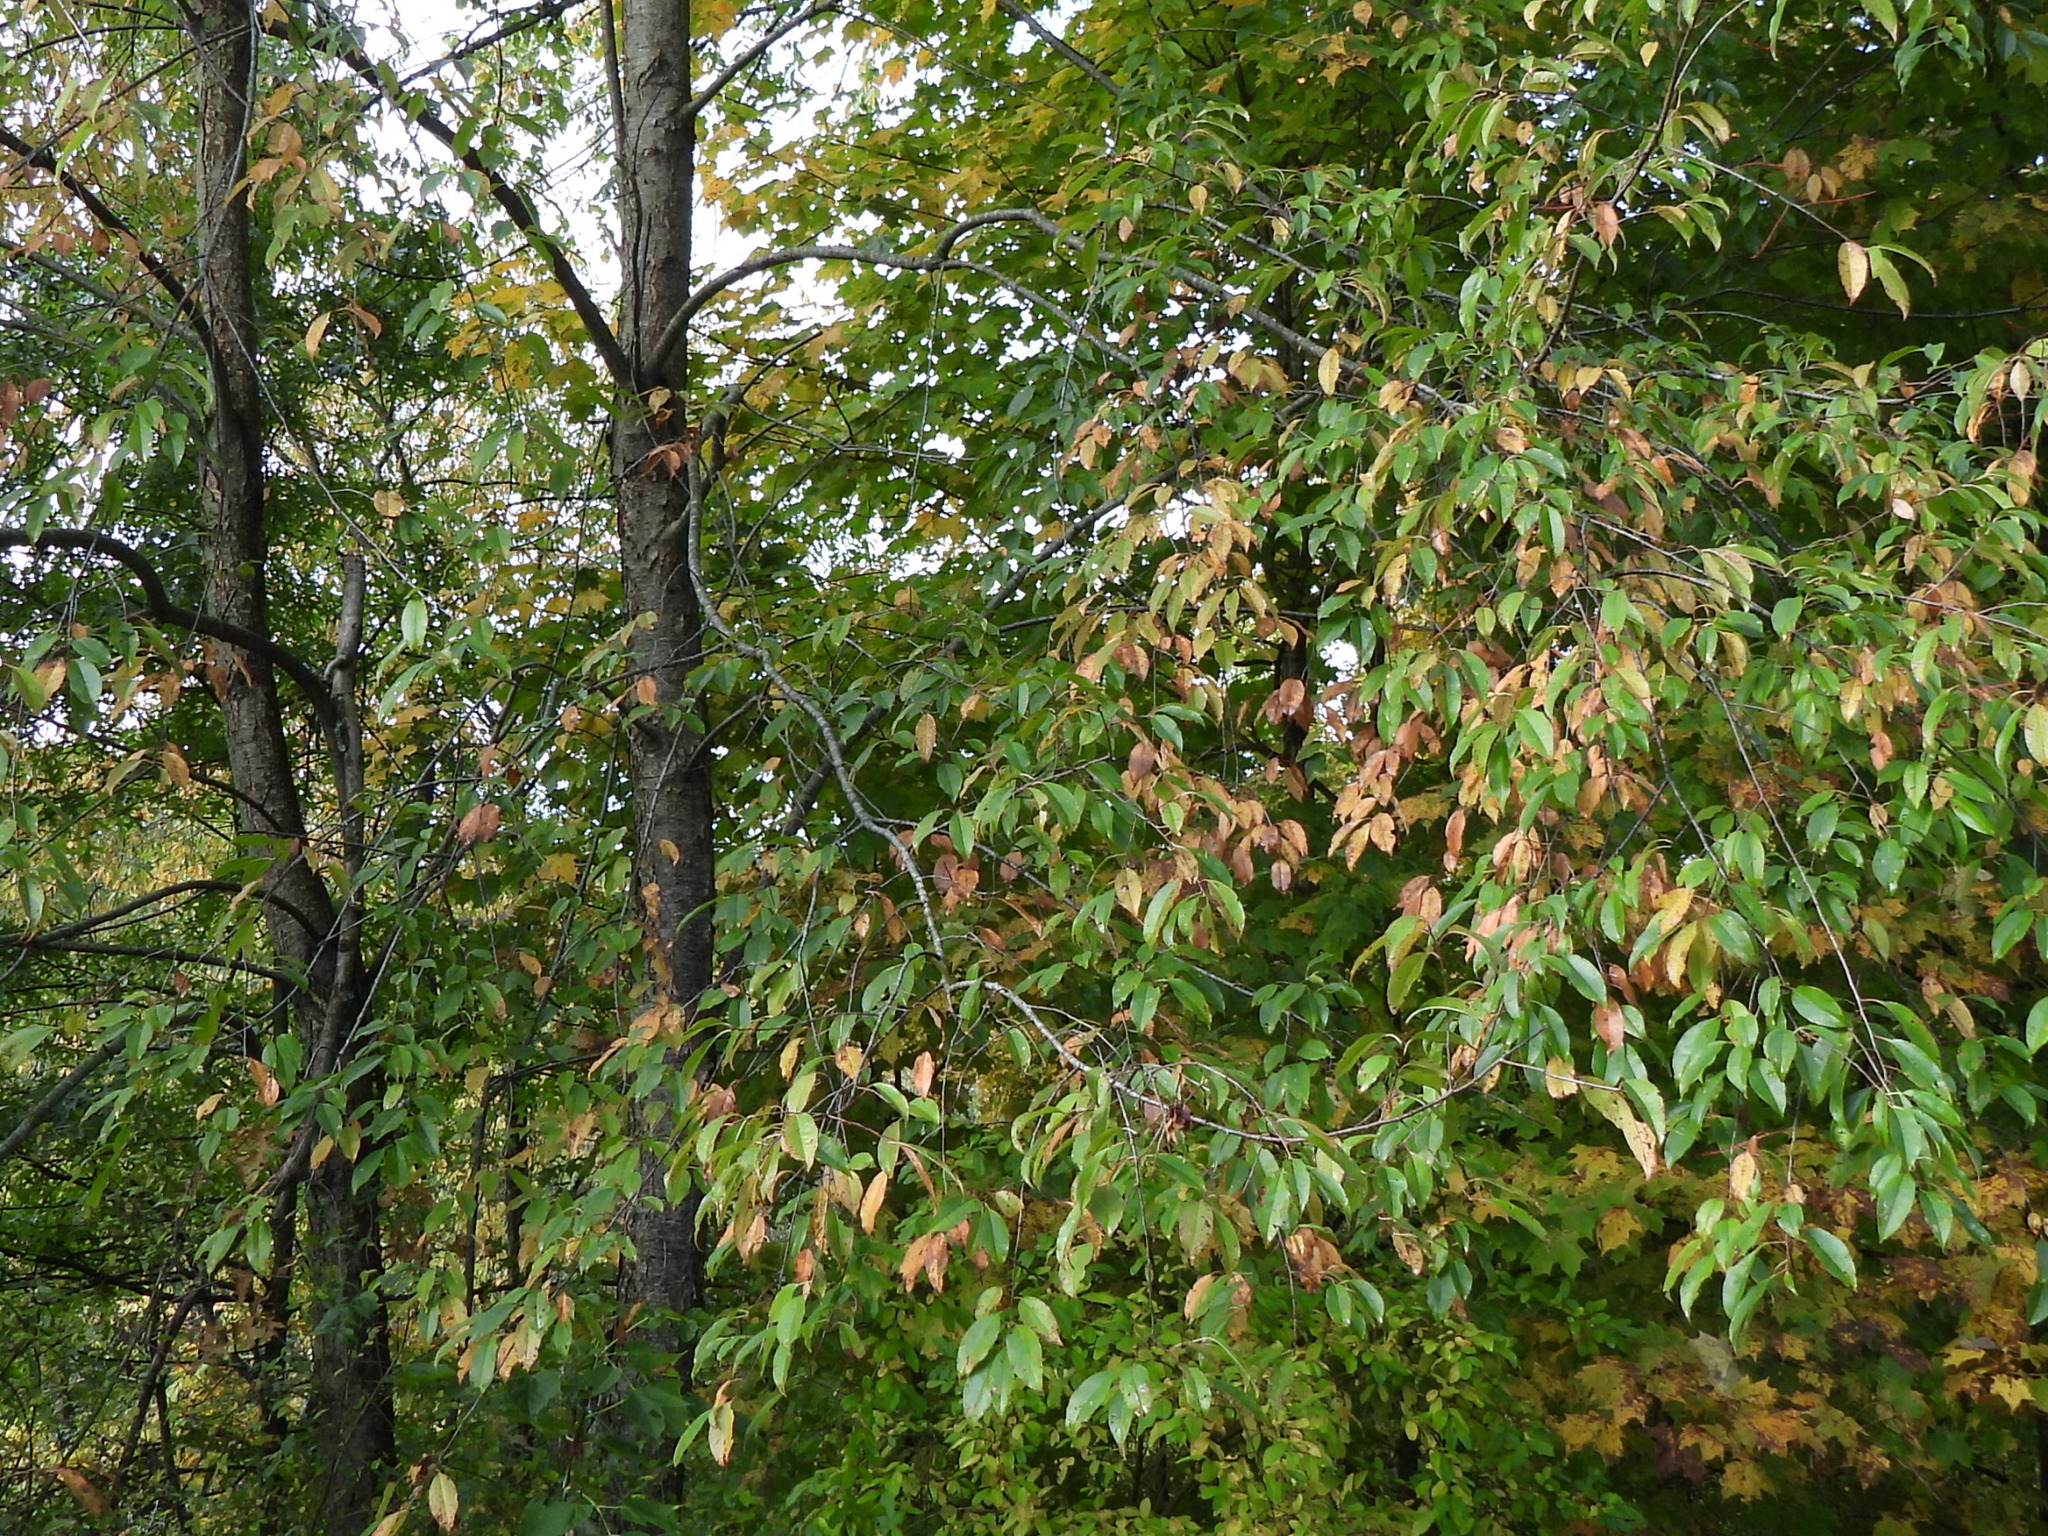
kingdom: Plantae
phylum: Tracheophyta
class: Magnoliopsida
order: Rosales
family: Rosaceae
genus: Prunus
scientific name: Prunus serotina
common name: Black cherry
